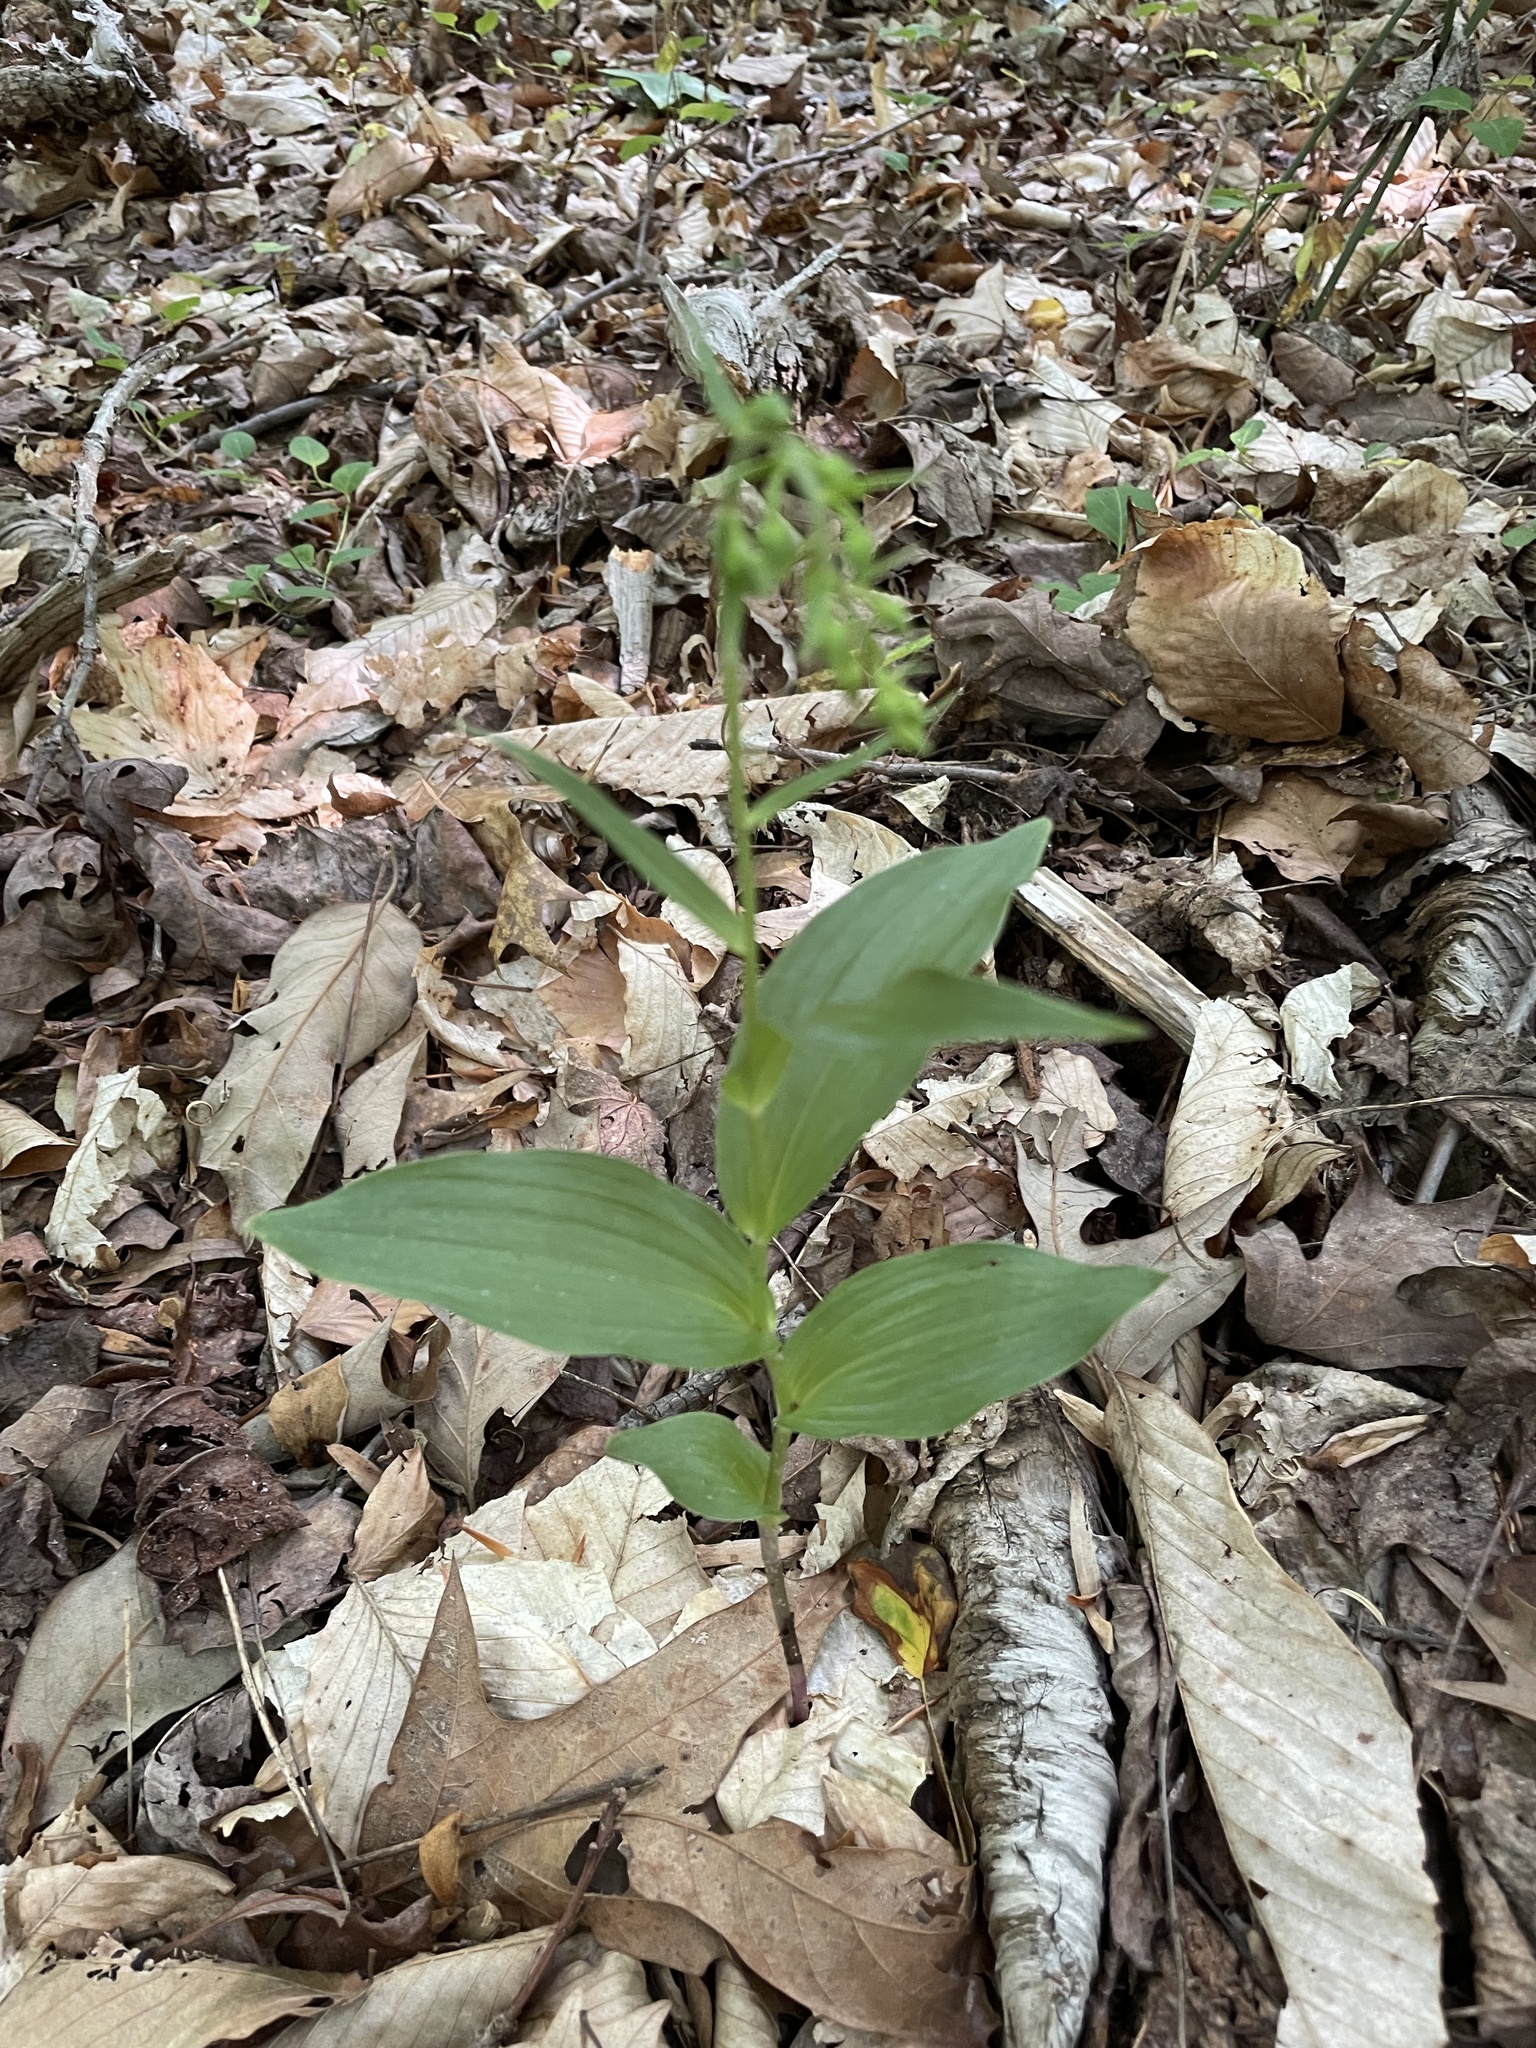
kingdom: Plantae
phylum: Tracheophyta
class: Liliopsida
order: Asparagales
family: Orchidaceae
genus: Epipactis
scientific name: Epipactis helleborine
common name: Broad-leaved helleborine
